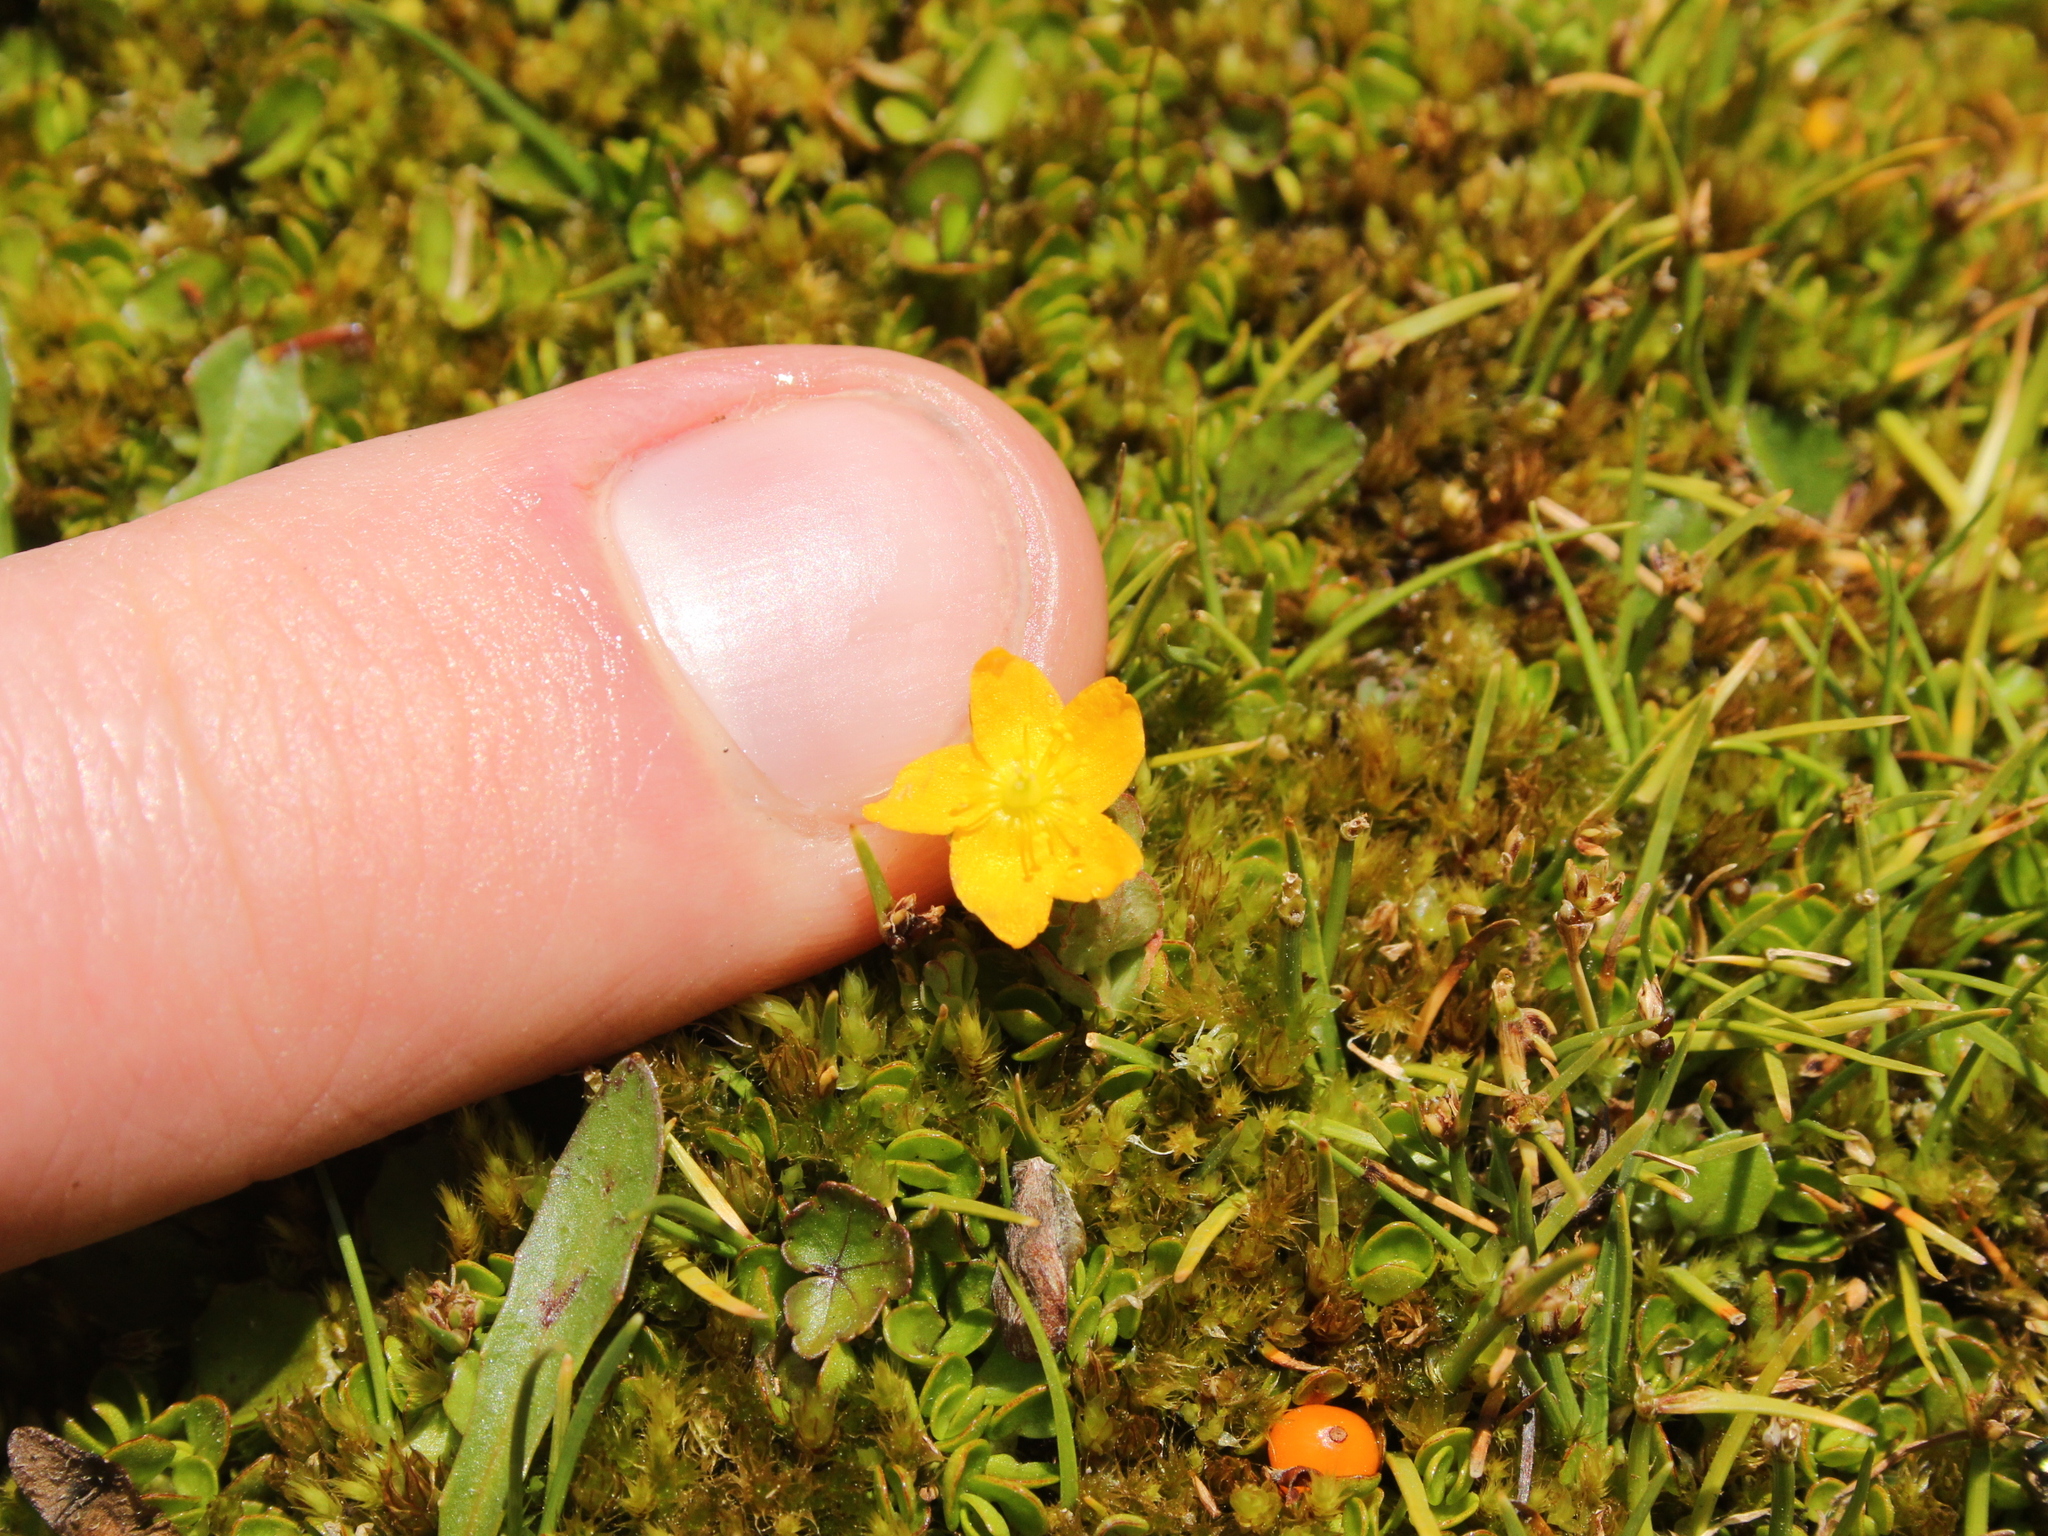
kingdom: Plantae
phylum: Tracheophyta
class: Magnoliopsida
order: Malpighiales
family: Hypericaceae
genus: Hypericum
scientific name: Hypericum japonicum
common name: Matted st. john's-wort
